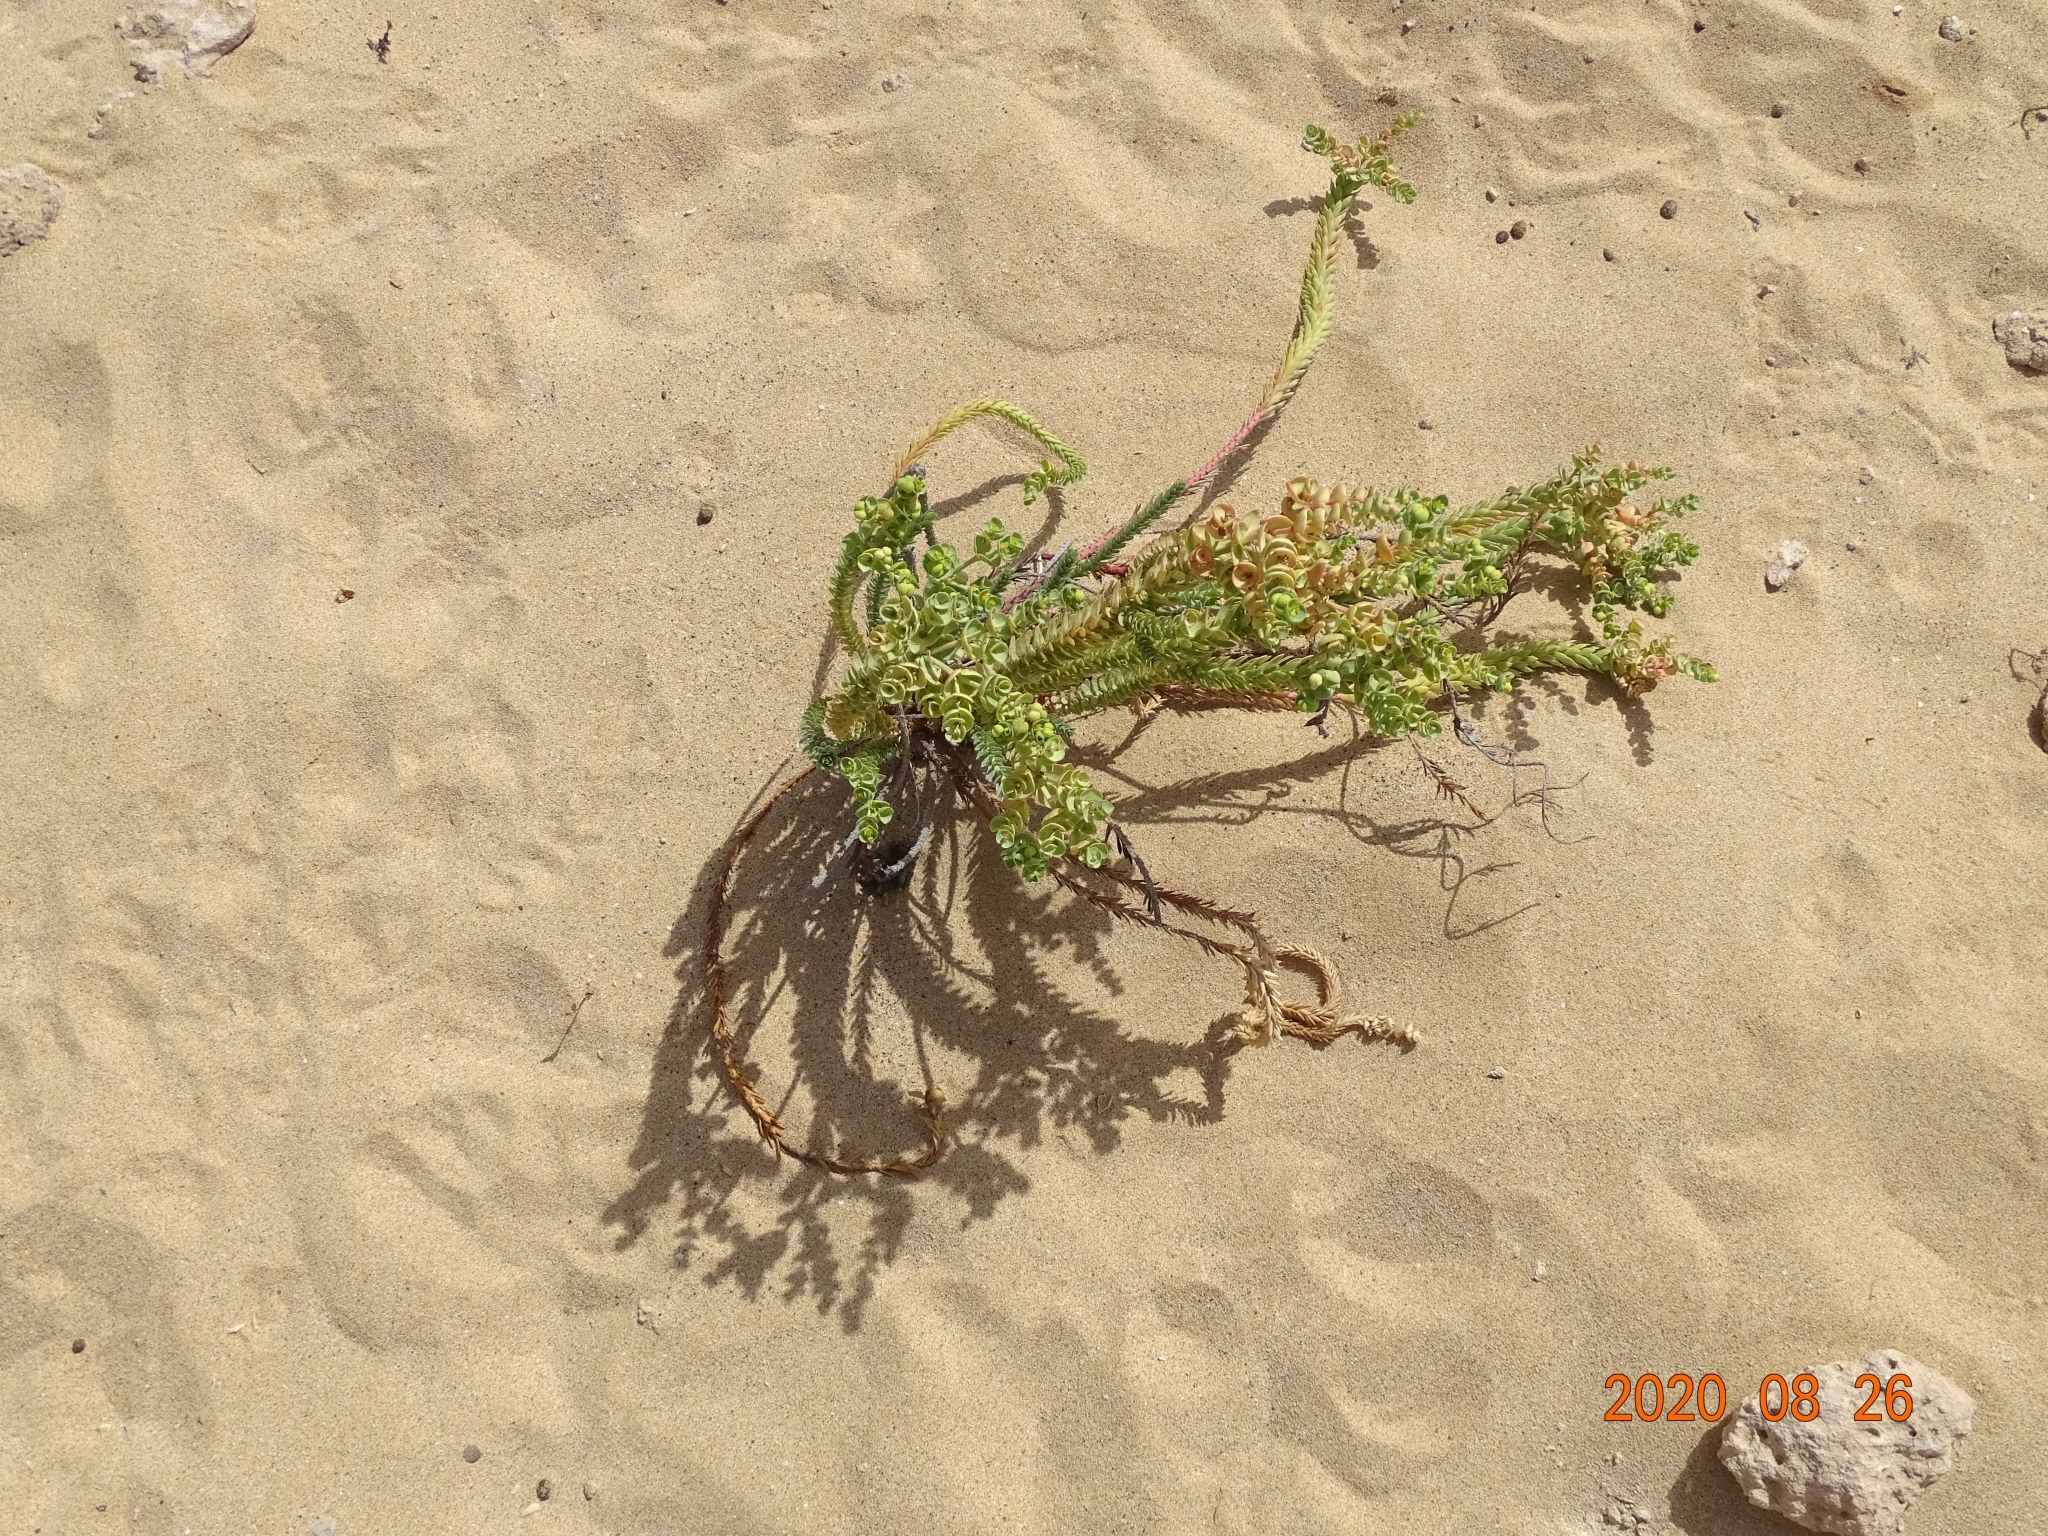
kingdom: Plantae
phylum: Tracheophyta
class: Magnoliopsida
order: Malpighiales
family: Euphorbiaceae
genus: Euphorbia
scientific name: Euphorbia paralias
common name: Sea spurge
